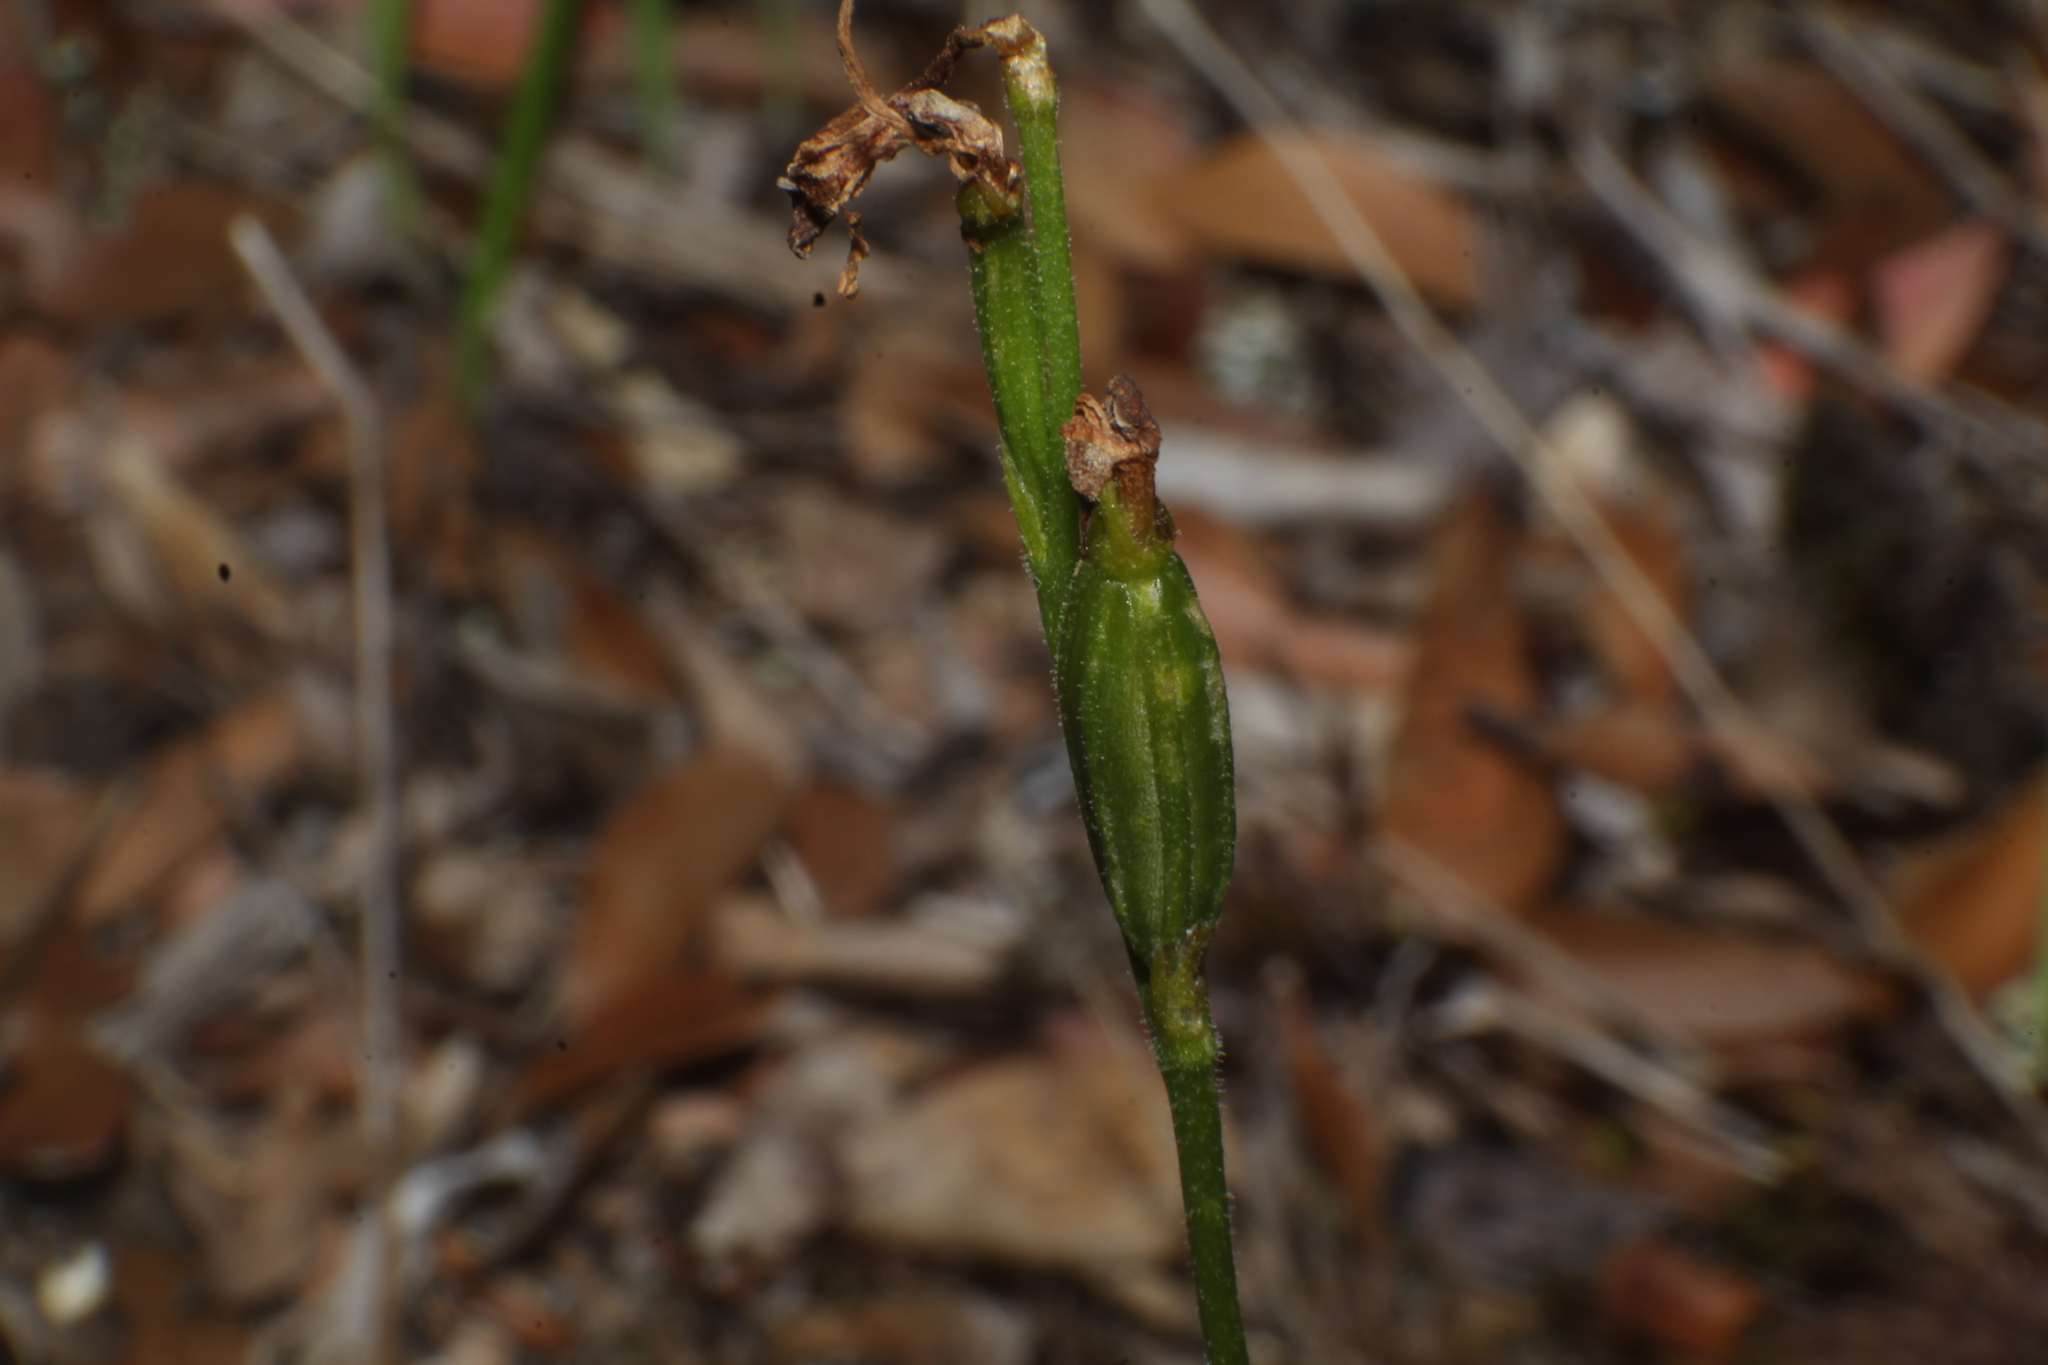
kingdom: Plantae
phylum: Tracheophyta
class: Liliopsida
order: Asparagales
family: Orchidaceae
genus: Eriochilus
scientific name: Eriochilus pulchellus
